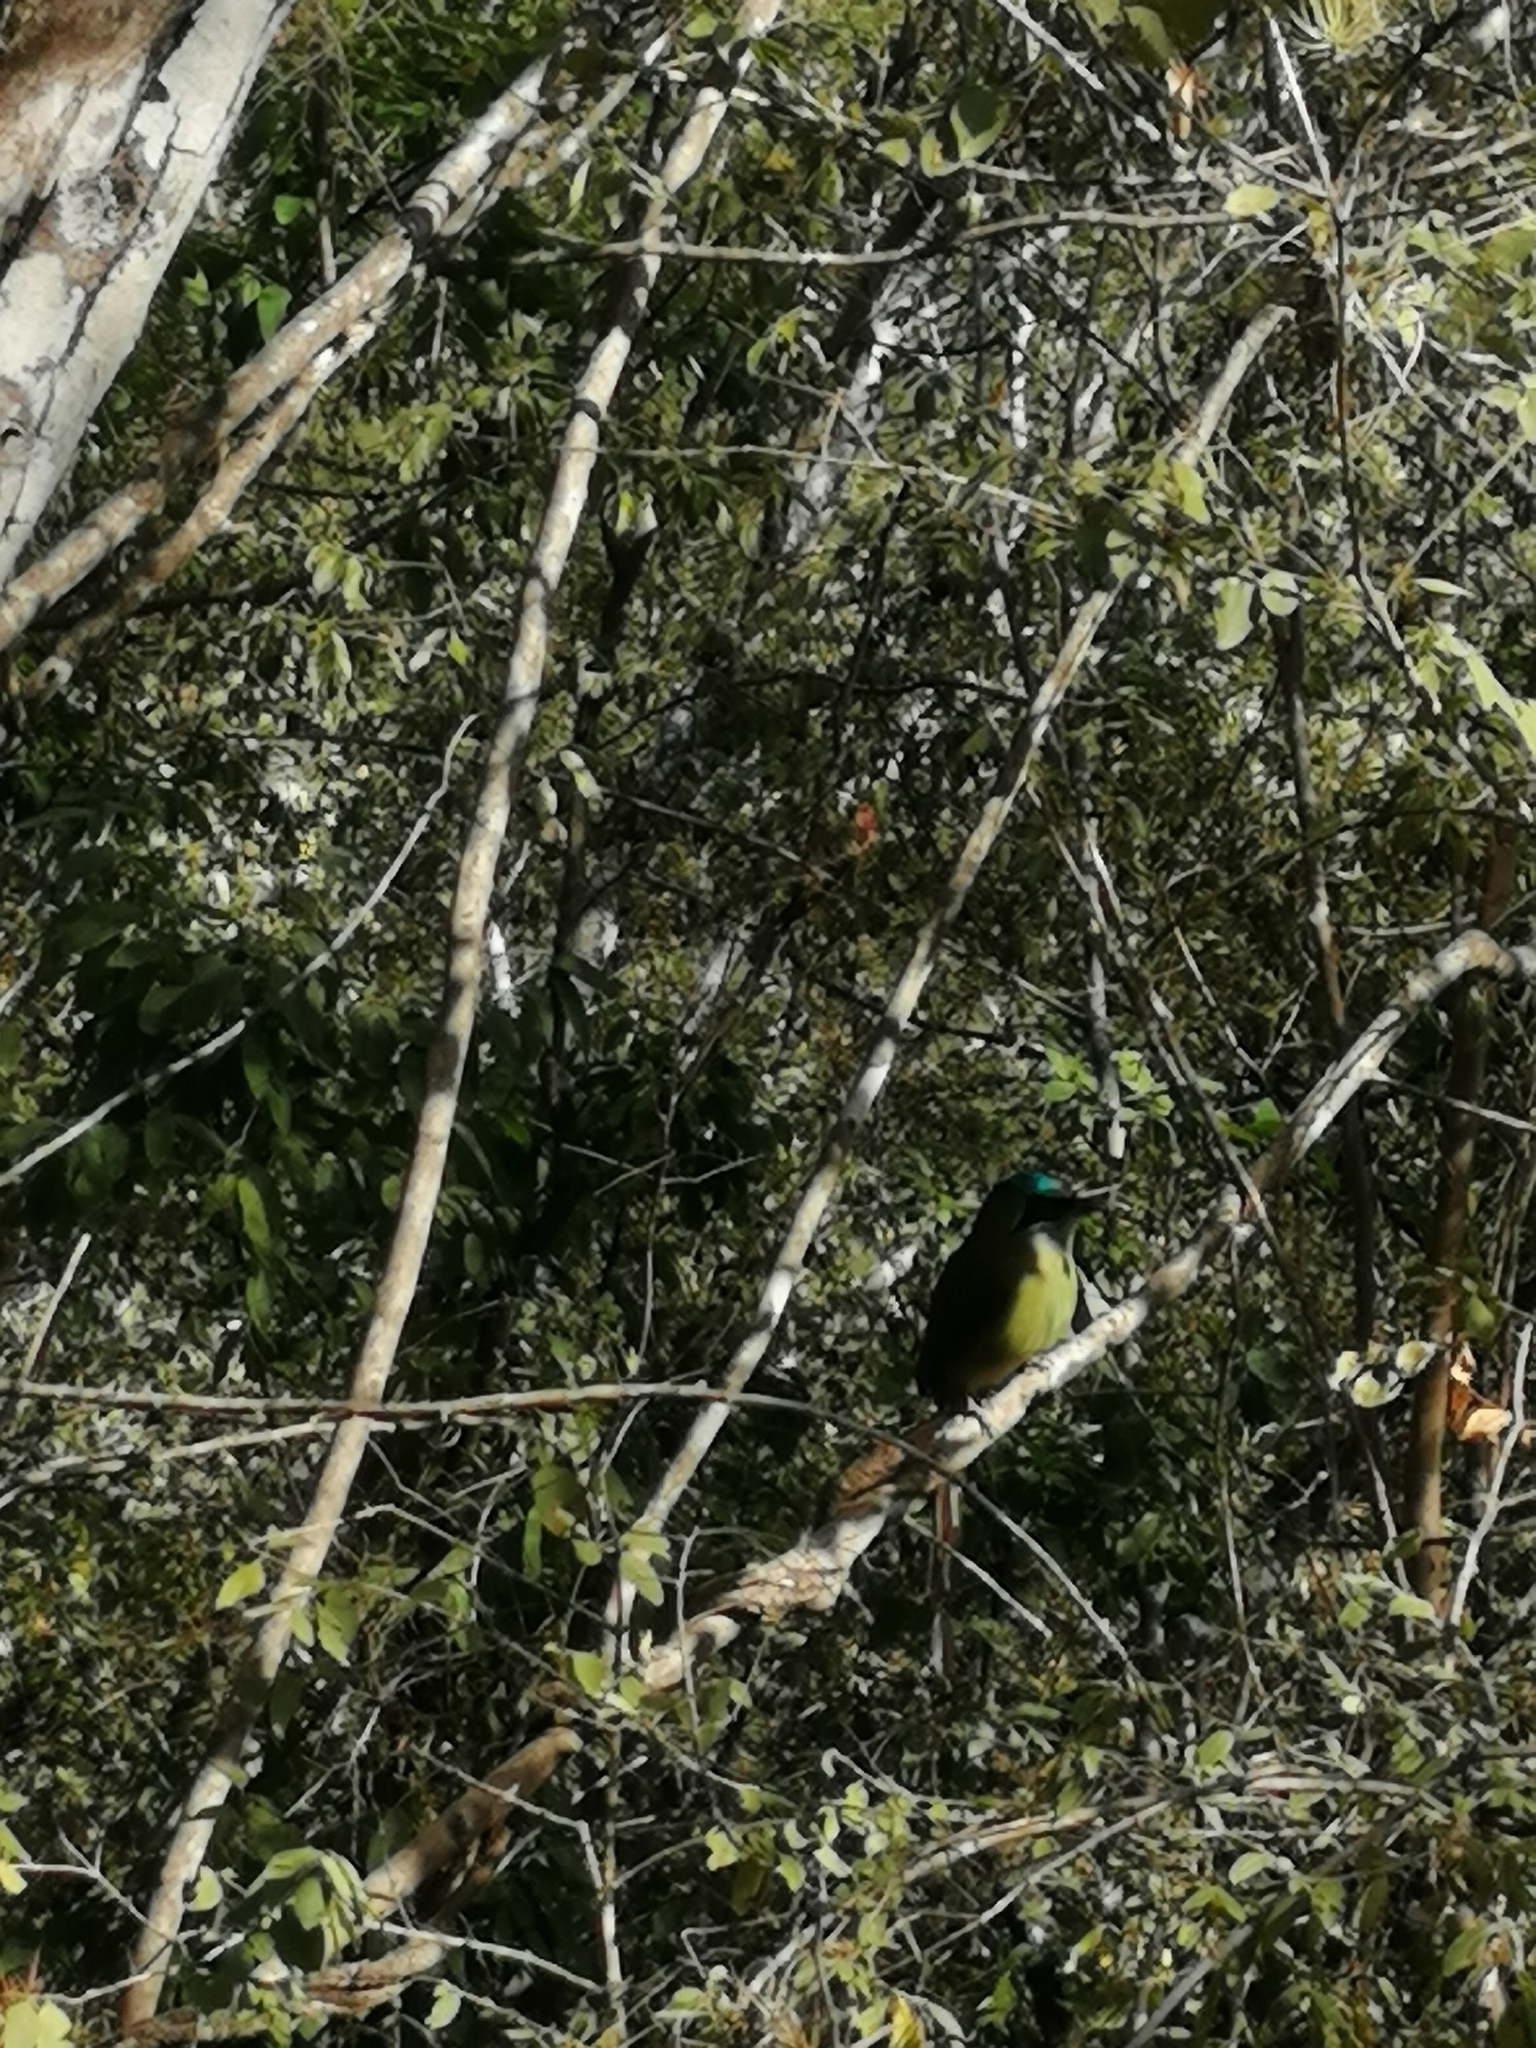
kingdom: Animalia
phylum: Chordata
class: Aves
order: Coraciiformes
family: Momotidae
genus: Momotus
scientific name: Momotus coeruliceps
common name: Blue-capped motmot
